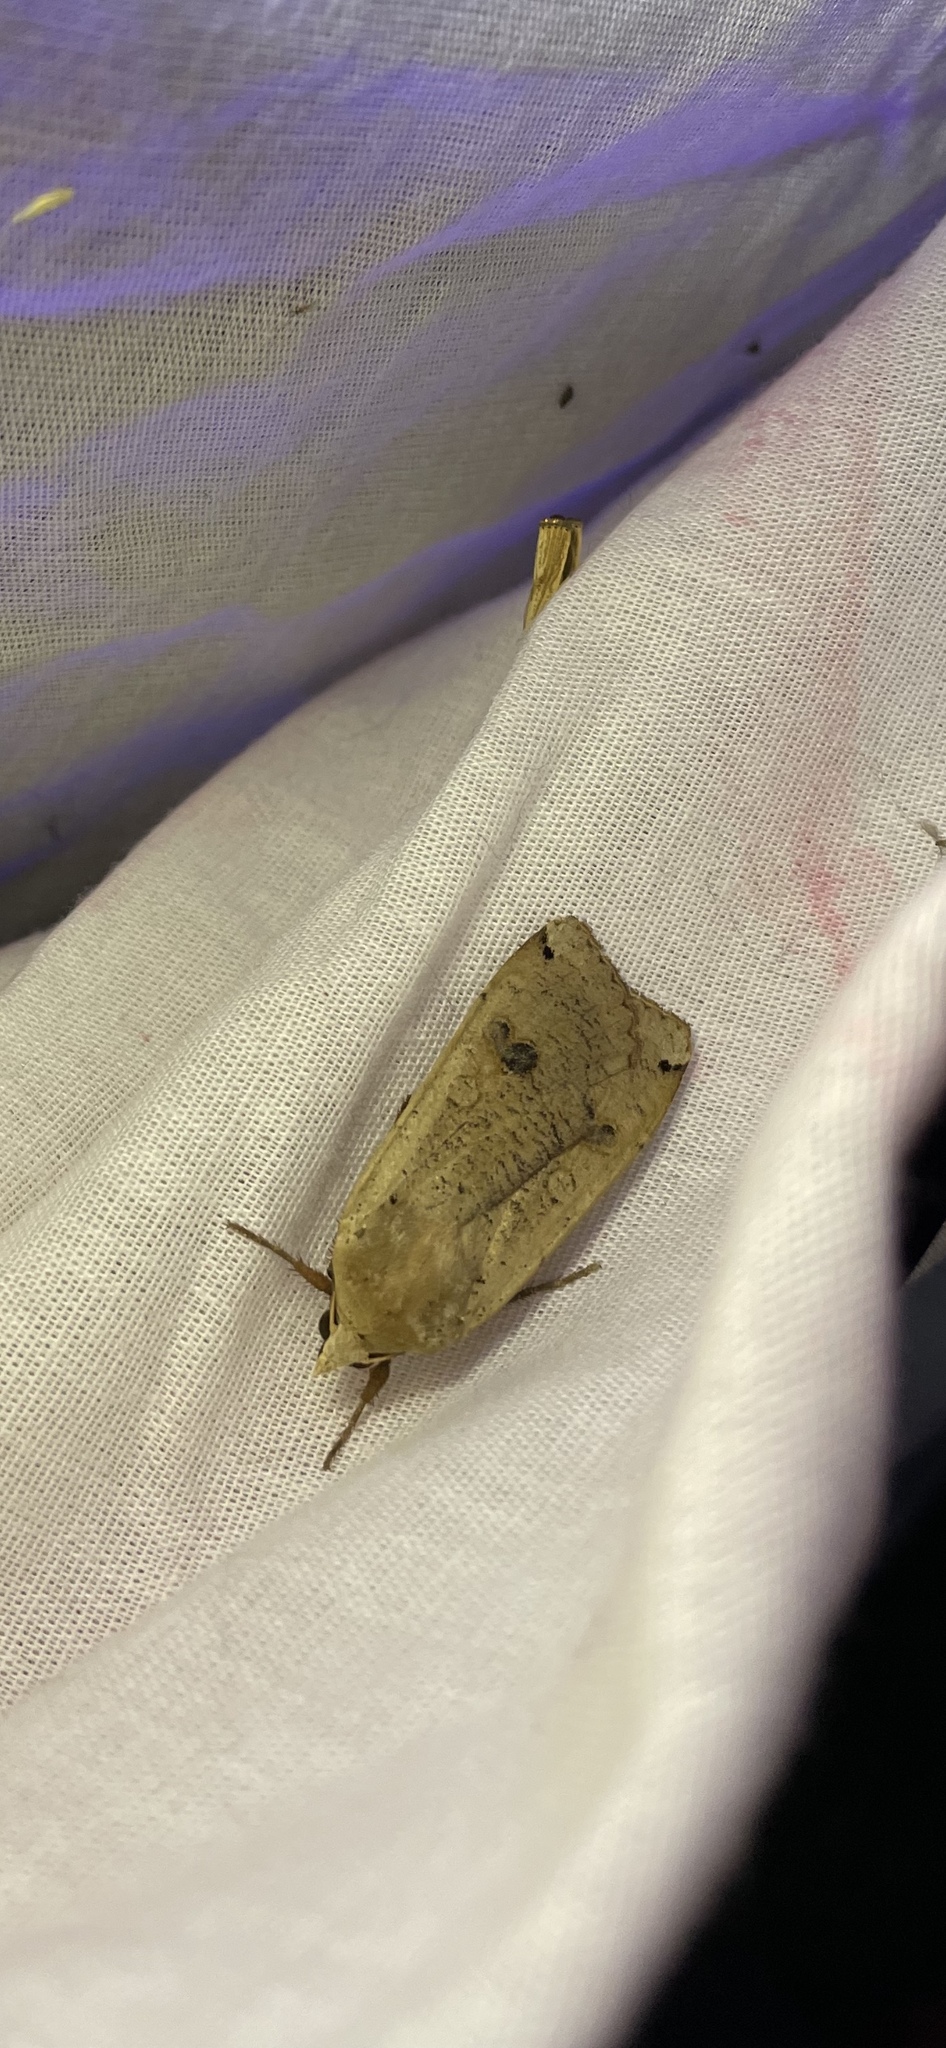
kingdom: Animalia
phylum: Arthropoda
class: Insecta
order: Lepidoptera
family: Noctuidae
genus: Noctua
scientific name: Noctua pronuba
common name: Large yellow underwing
